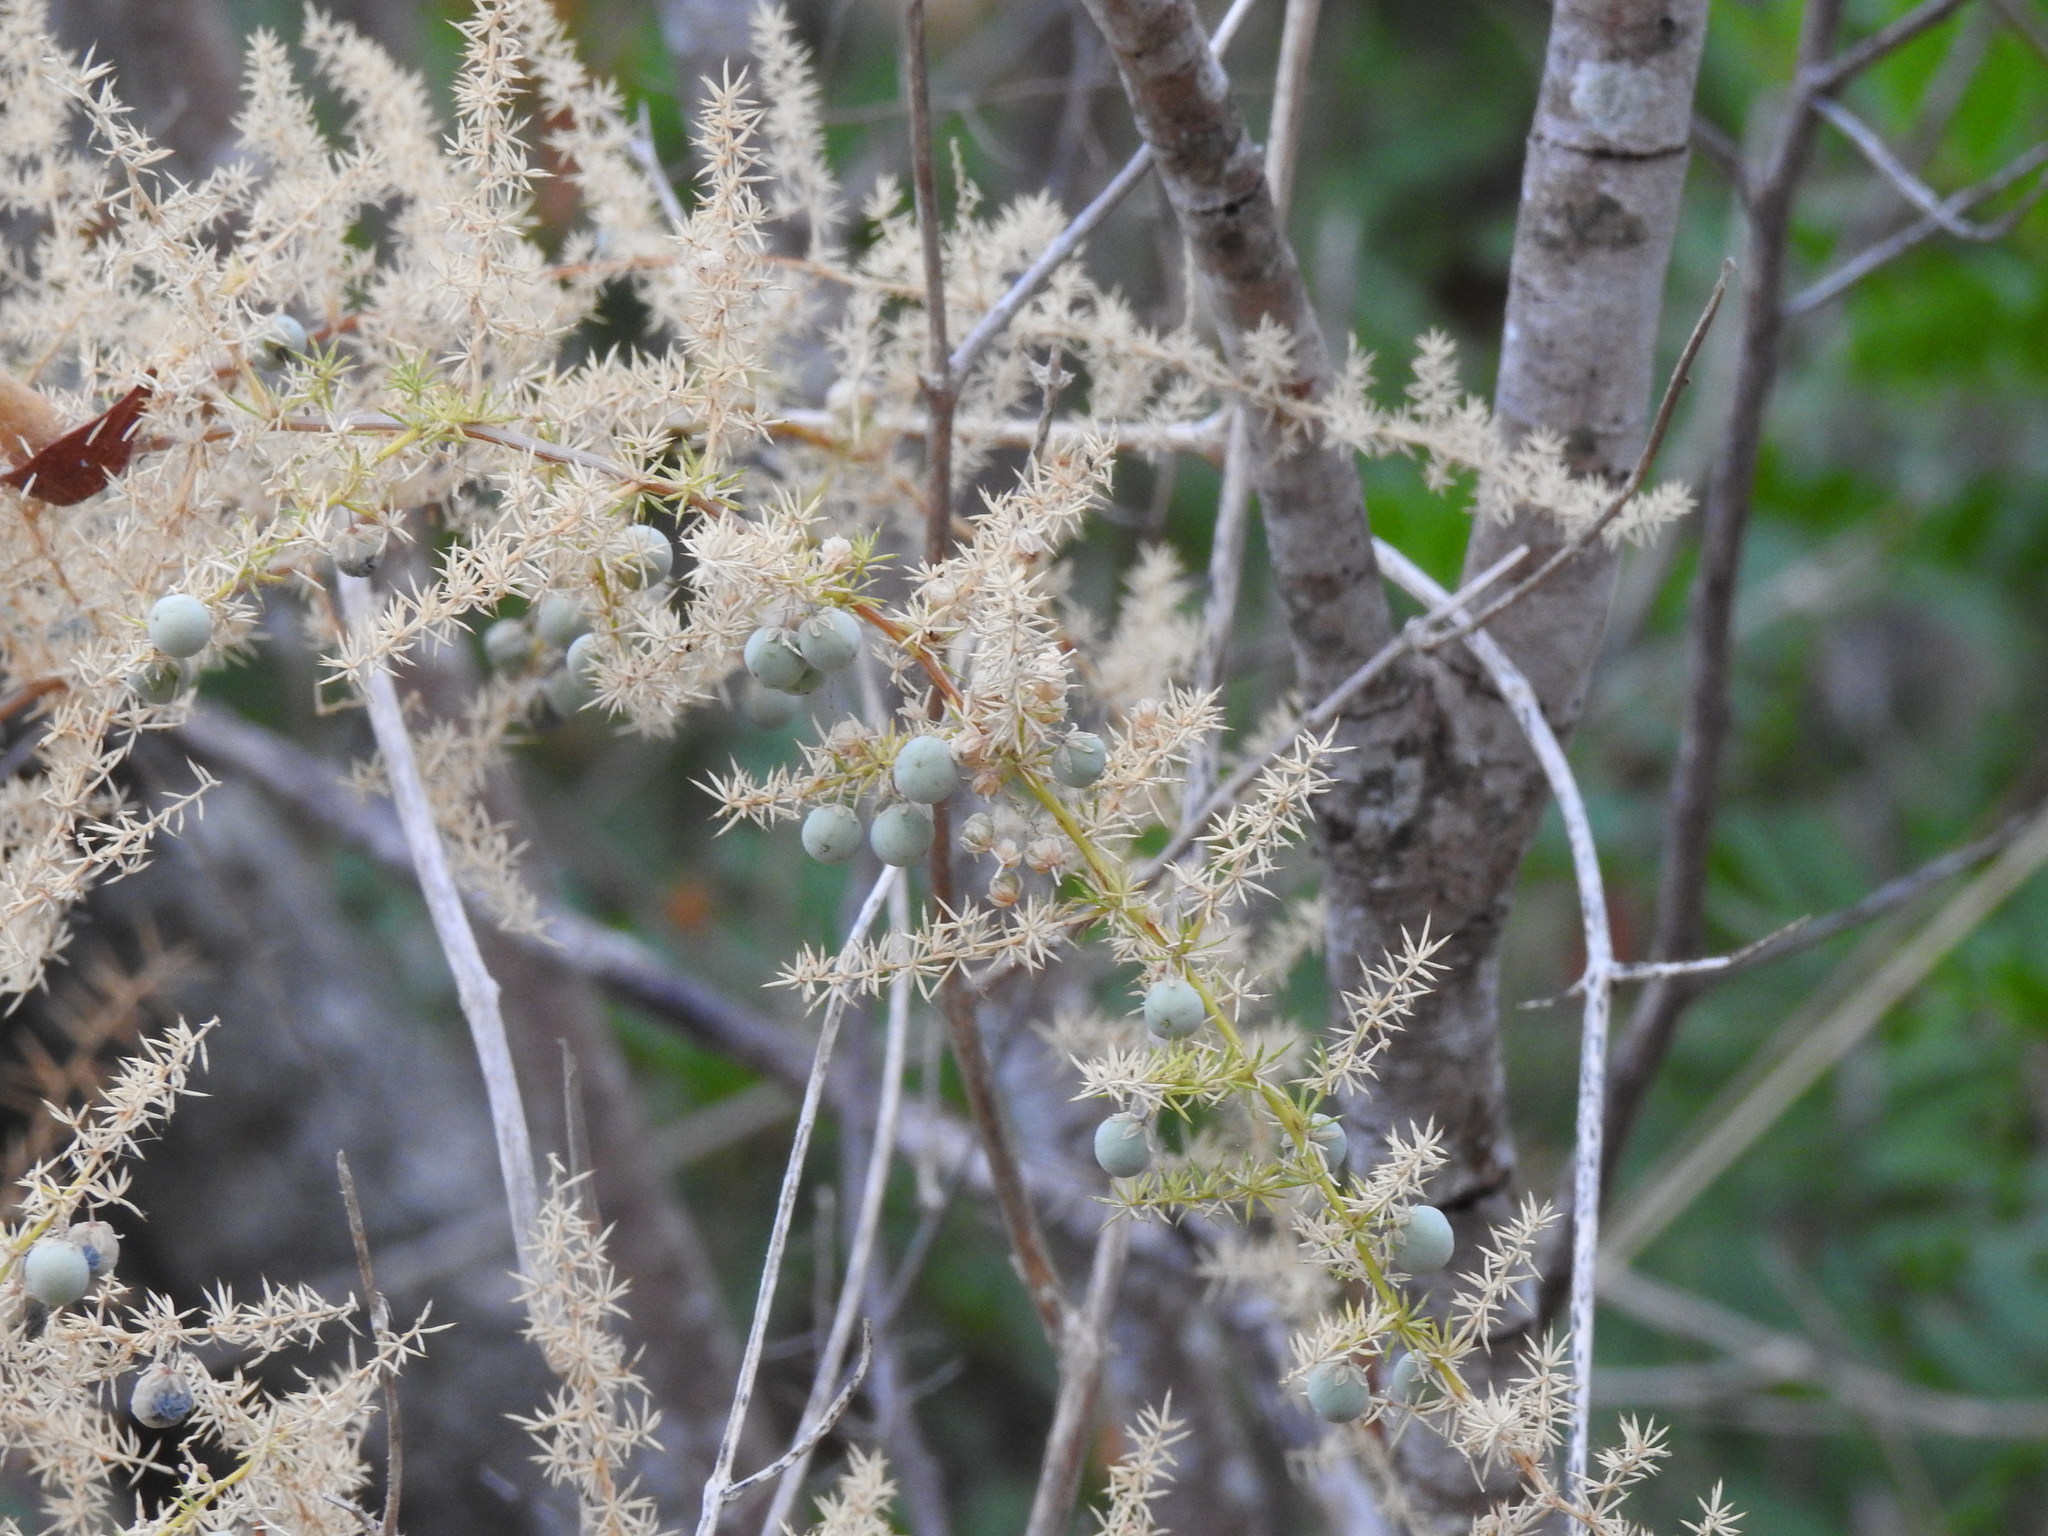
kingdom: Plantae
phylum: Tracheophyta
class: Liliopsida
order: Asparagales
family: Asparagaceae
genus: Asparagus
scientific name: Asparagus acutifolius
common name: Wild asparagus
